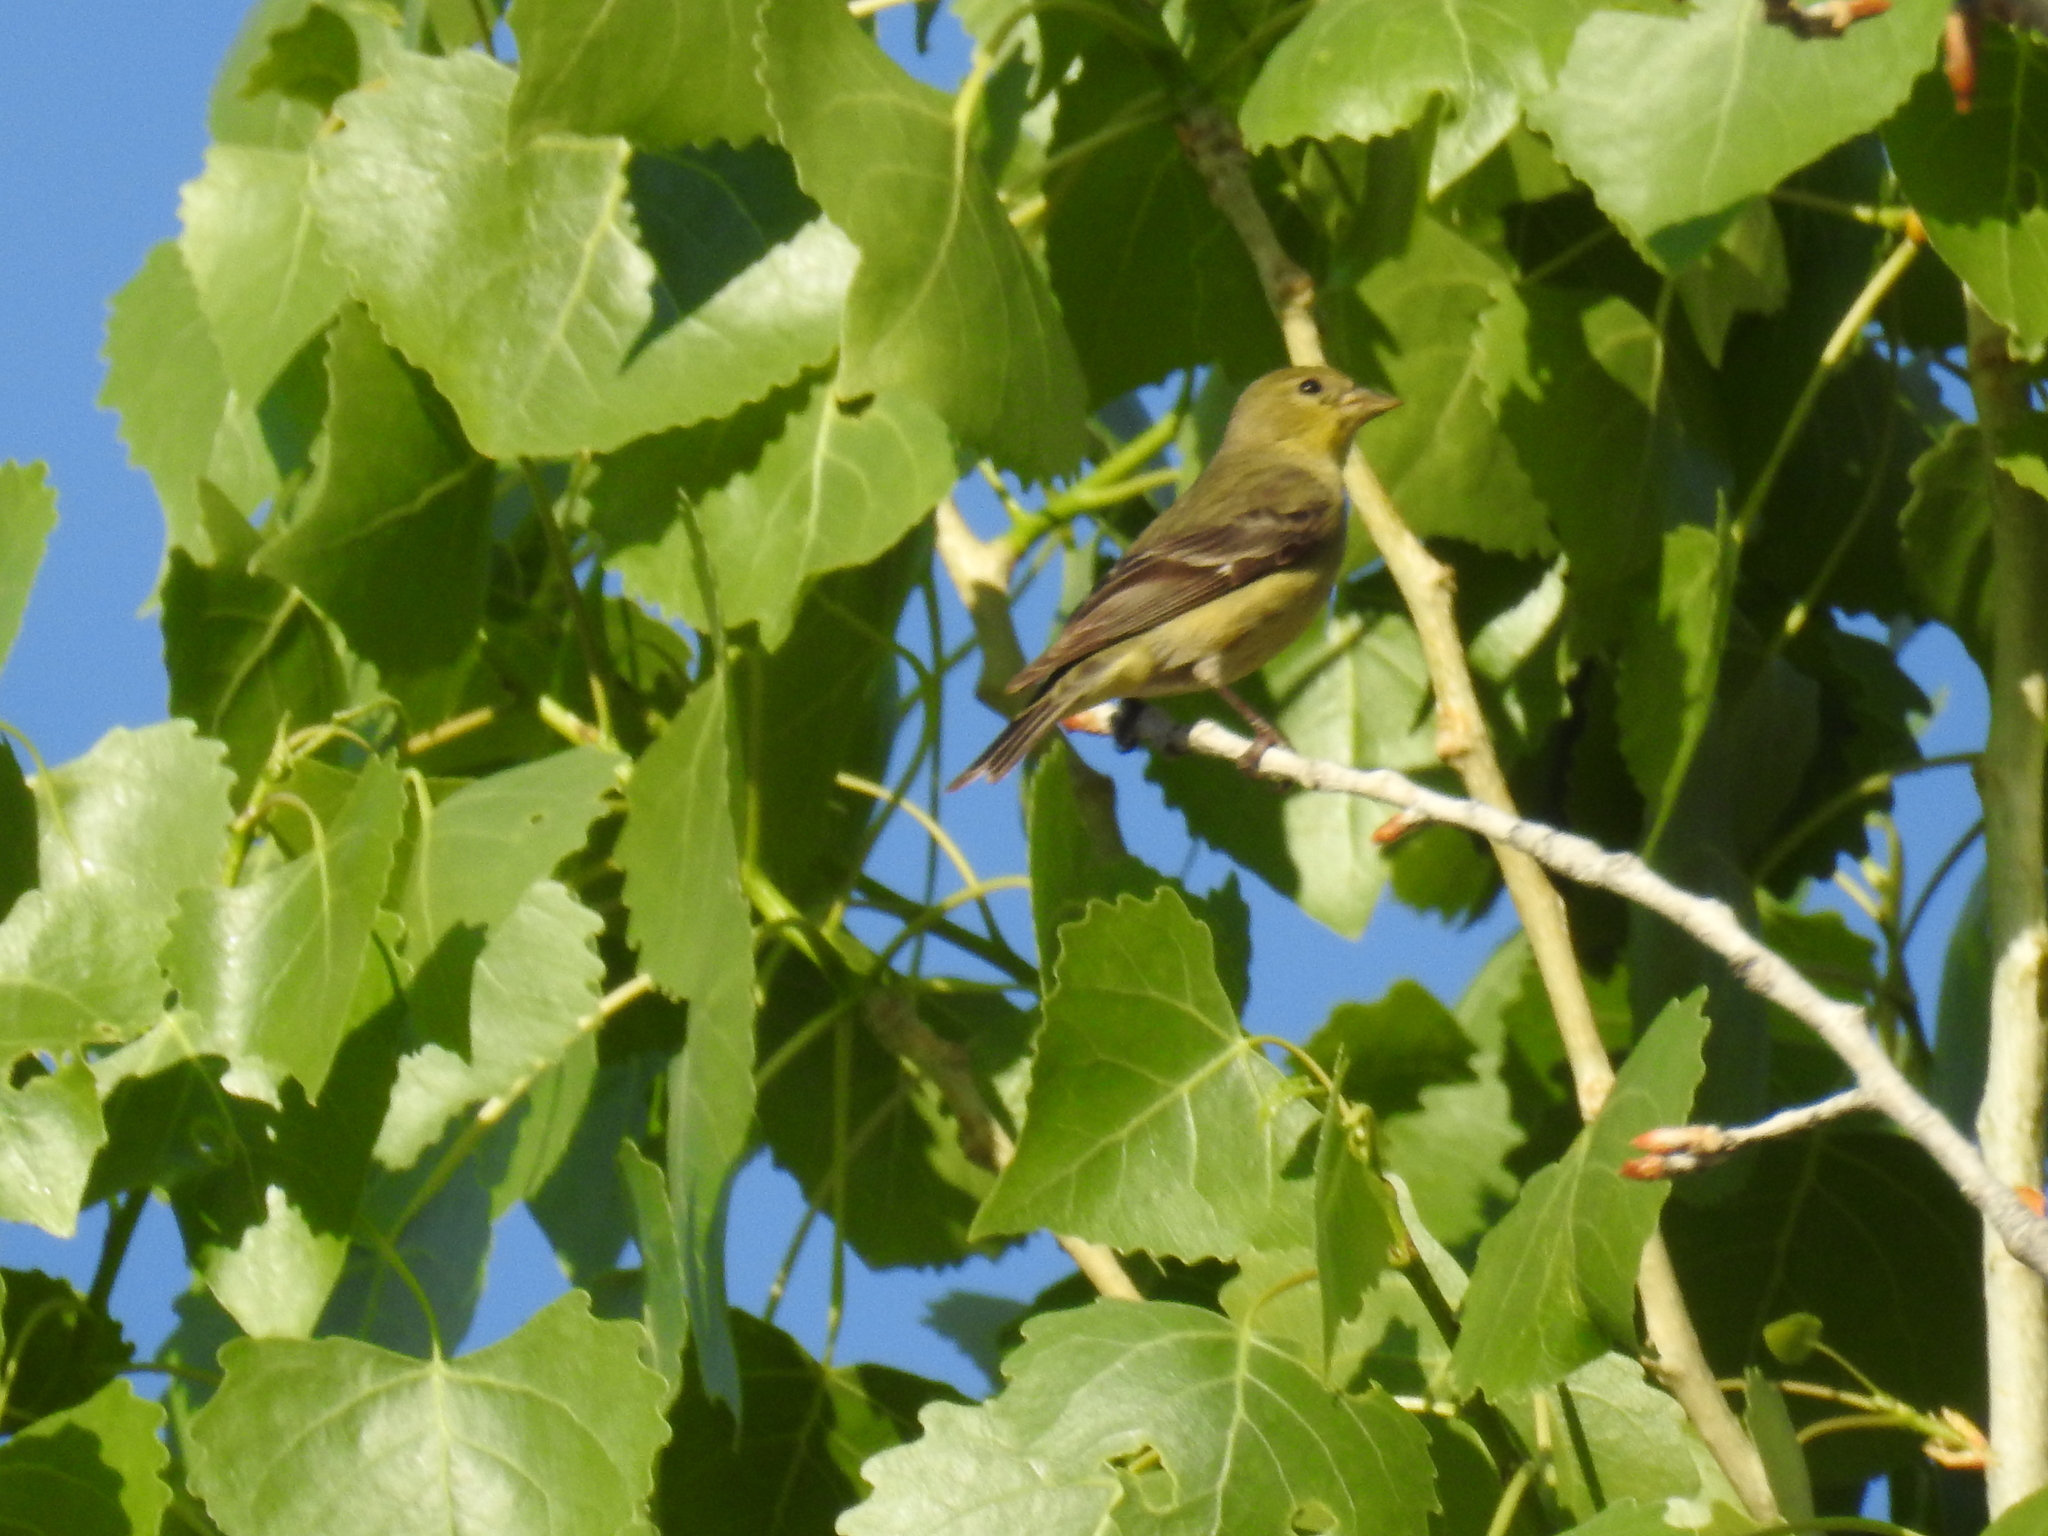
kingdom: Animalia
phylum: Chordata
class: Aves
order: Passeriformes
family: Fringillidae
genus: Spinus
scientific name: Spinus psaltria
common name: Lesser goldfinch
